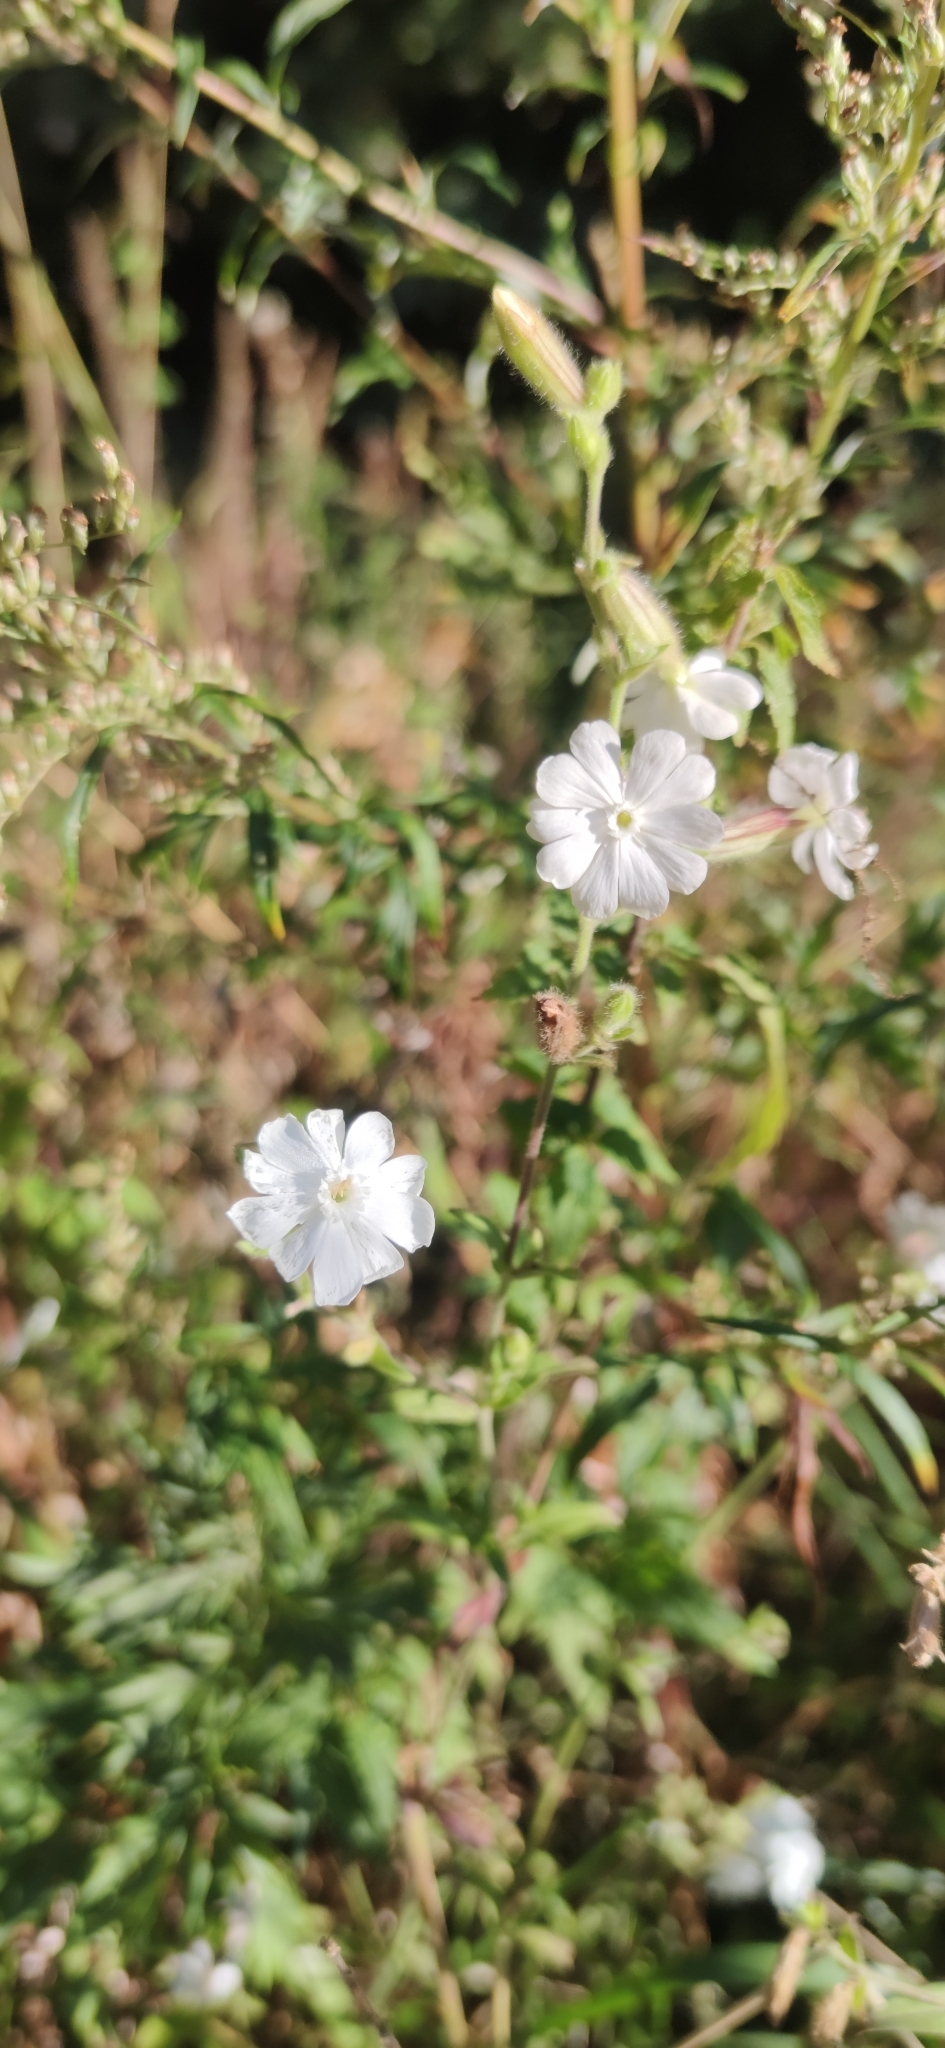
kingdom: Plantae
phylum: Tracheophyta
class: Magnoliopsida
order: Caryophyllales
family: Caryophyllaceae
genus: Silene
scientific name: Silene latifolia
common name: White campion
